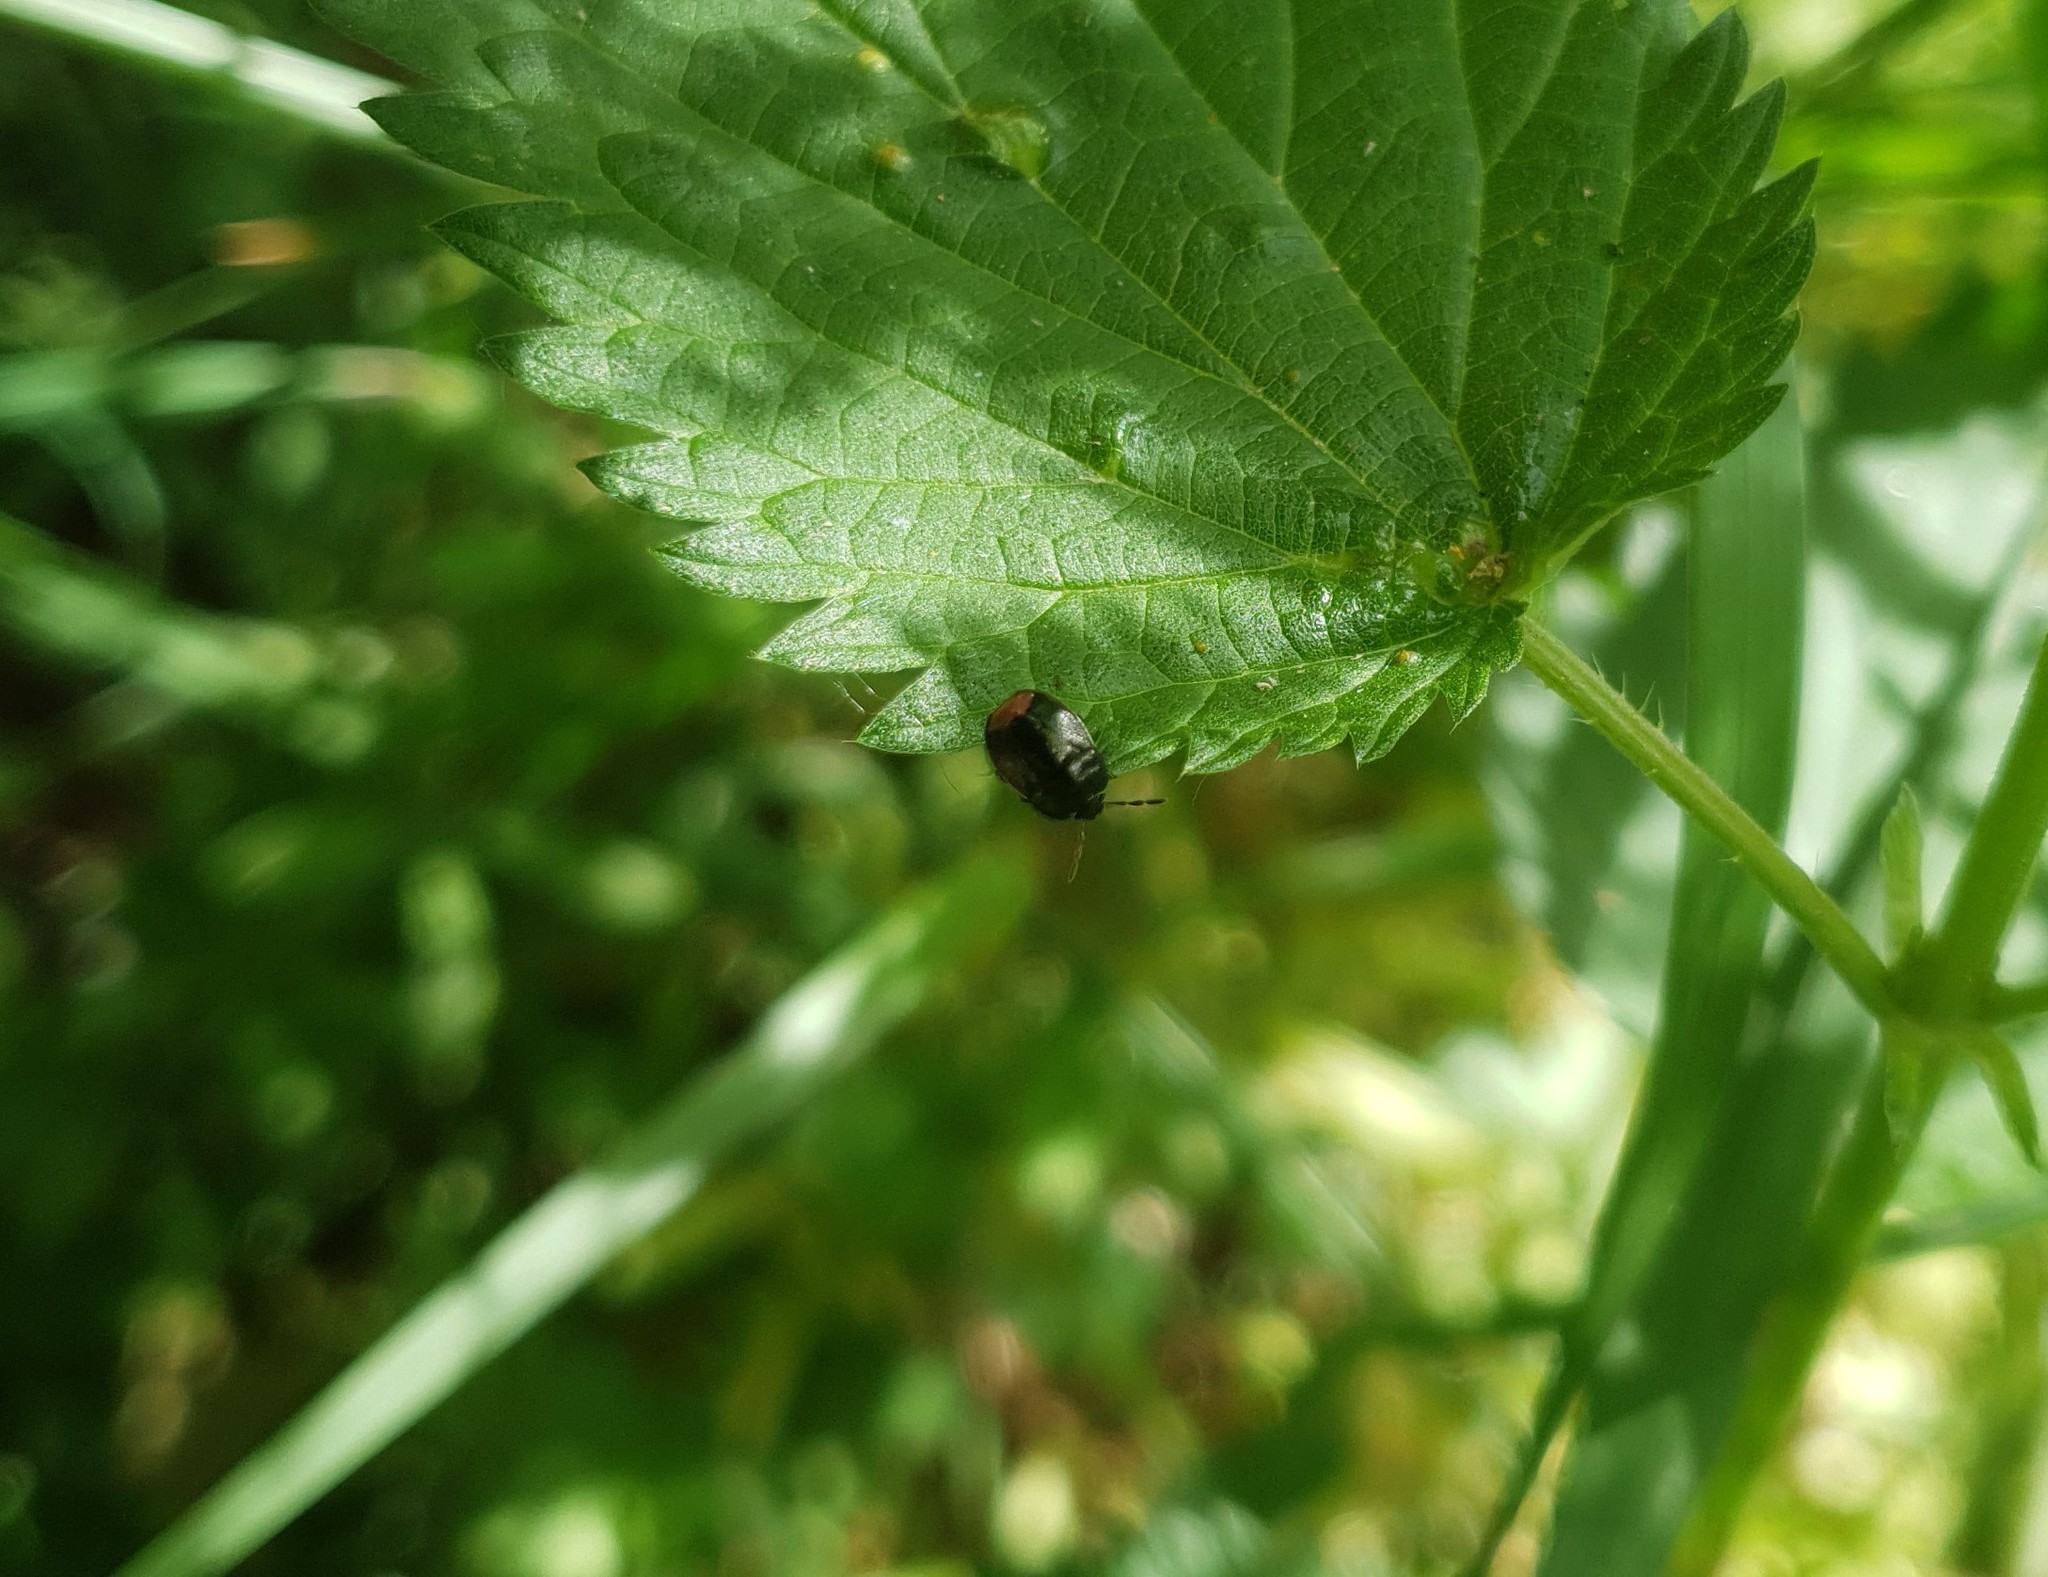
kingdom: Animalia
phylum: Arthropoda
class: Insecta
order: Hemiptera
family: Cydnidae
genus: Legnotus
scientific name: Legnotus limbosus
